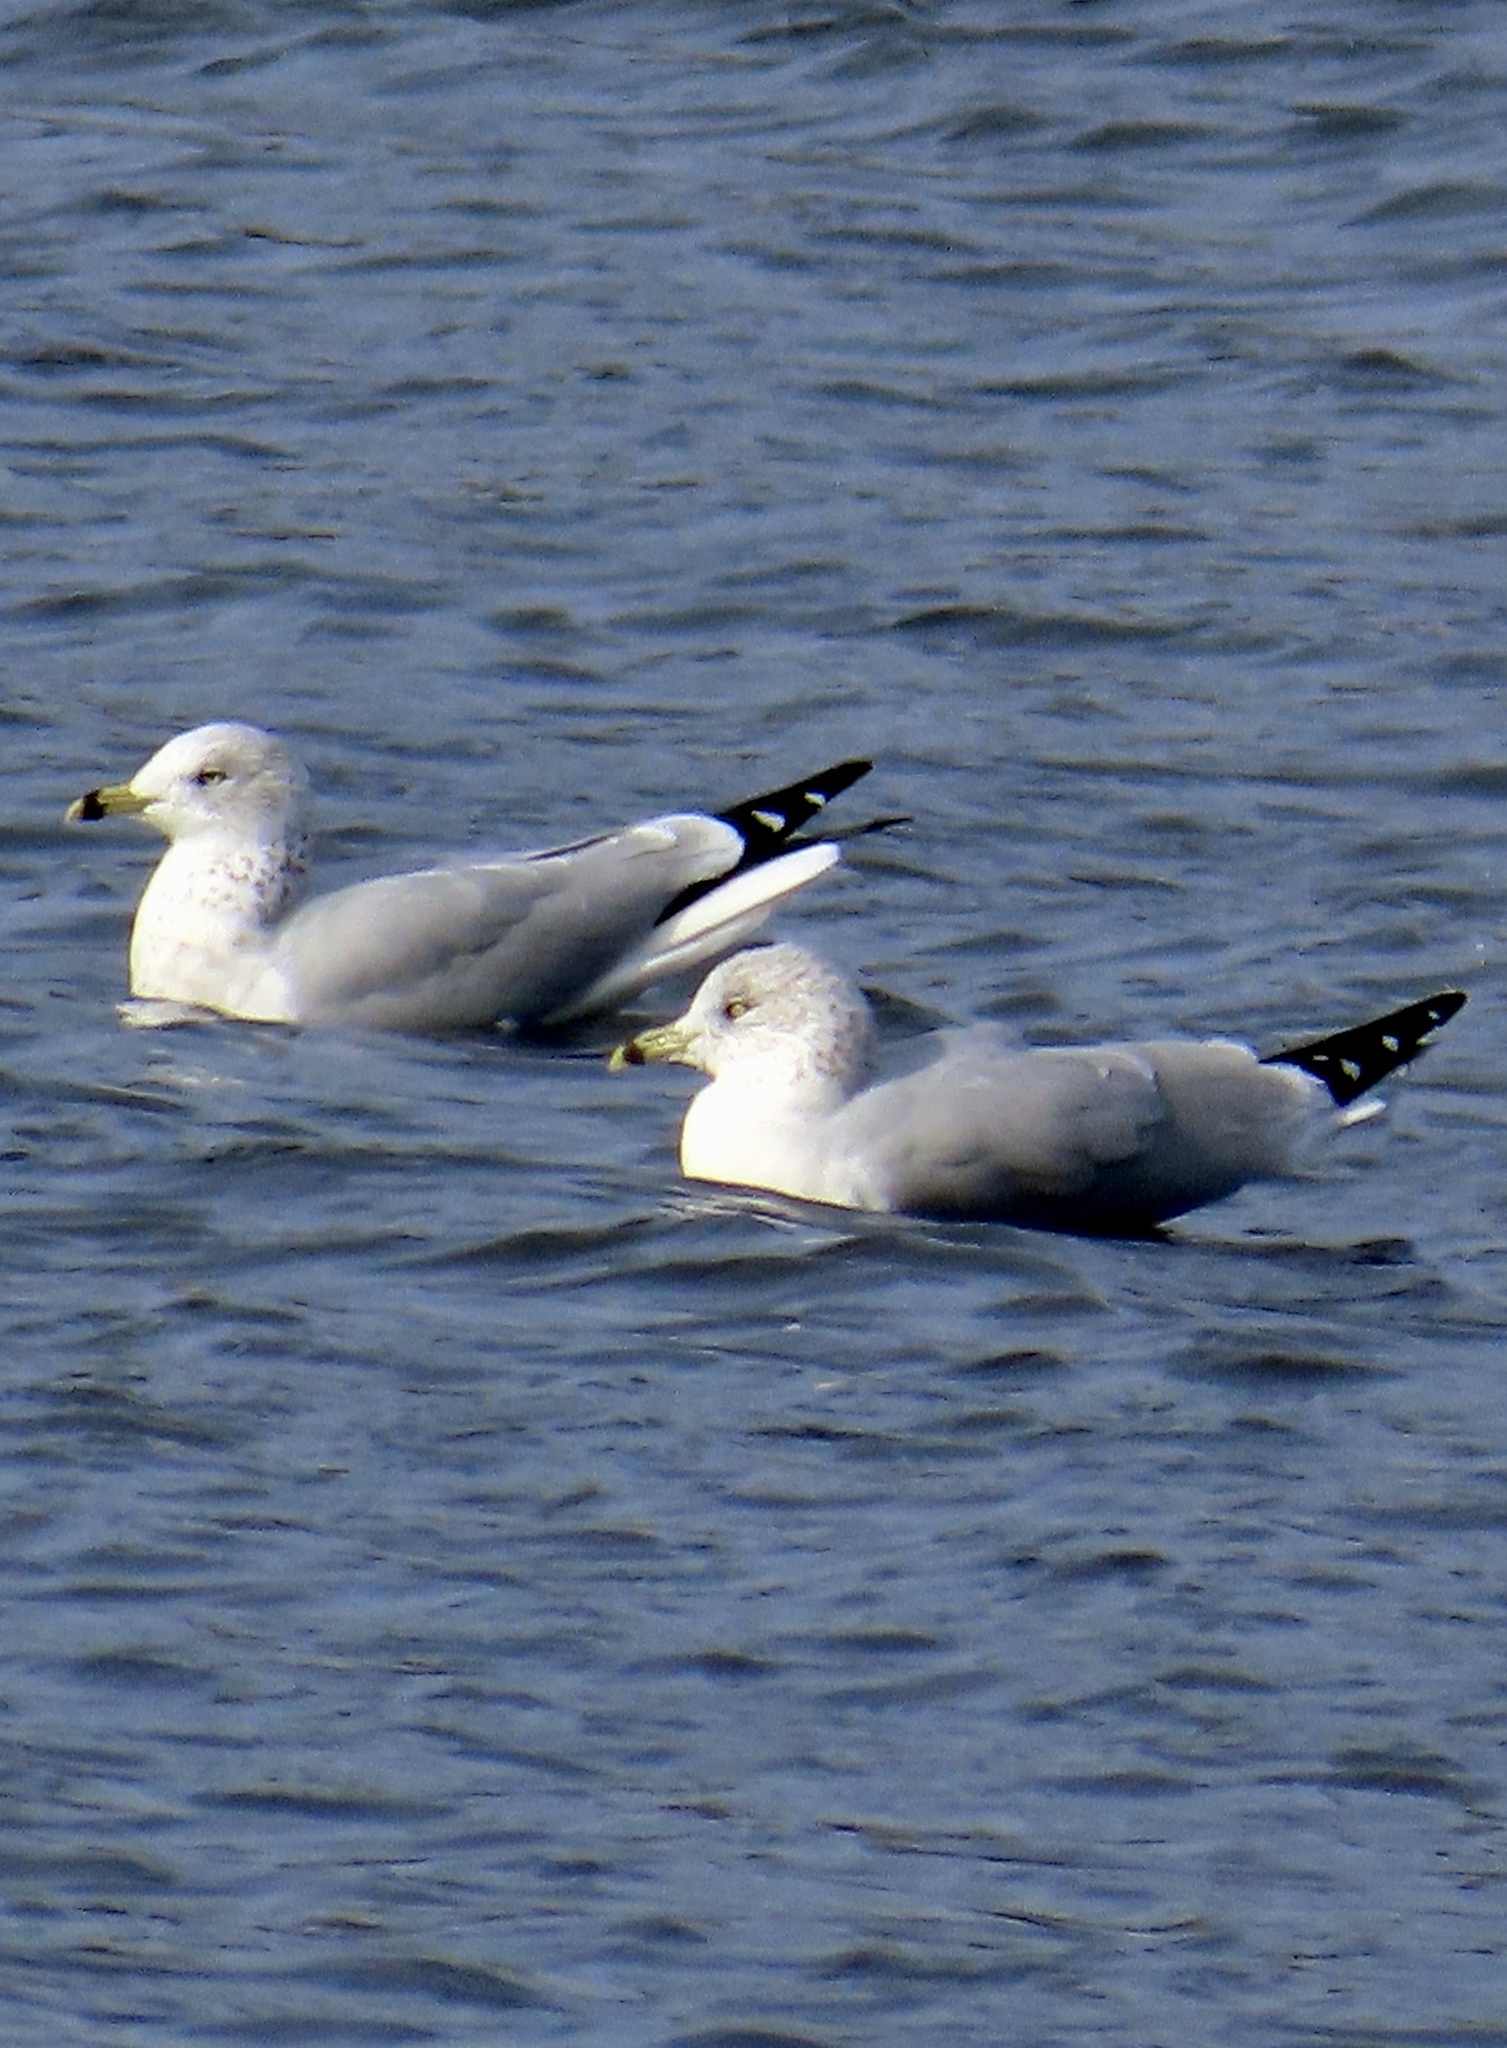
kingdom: Animalia
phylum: Chordata
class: Aves
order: Charadriiformes
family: Laridae
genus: Larus
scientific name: Larus delawarensis
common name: Ring-billed gull
